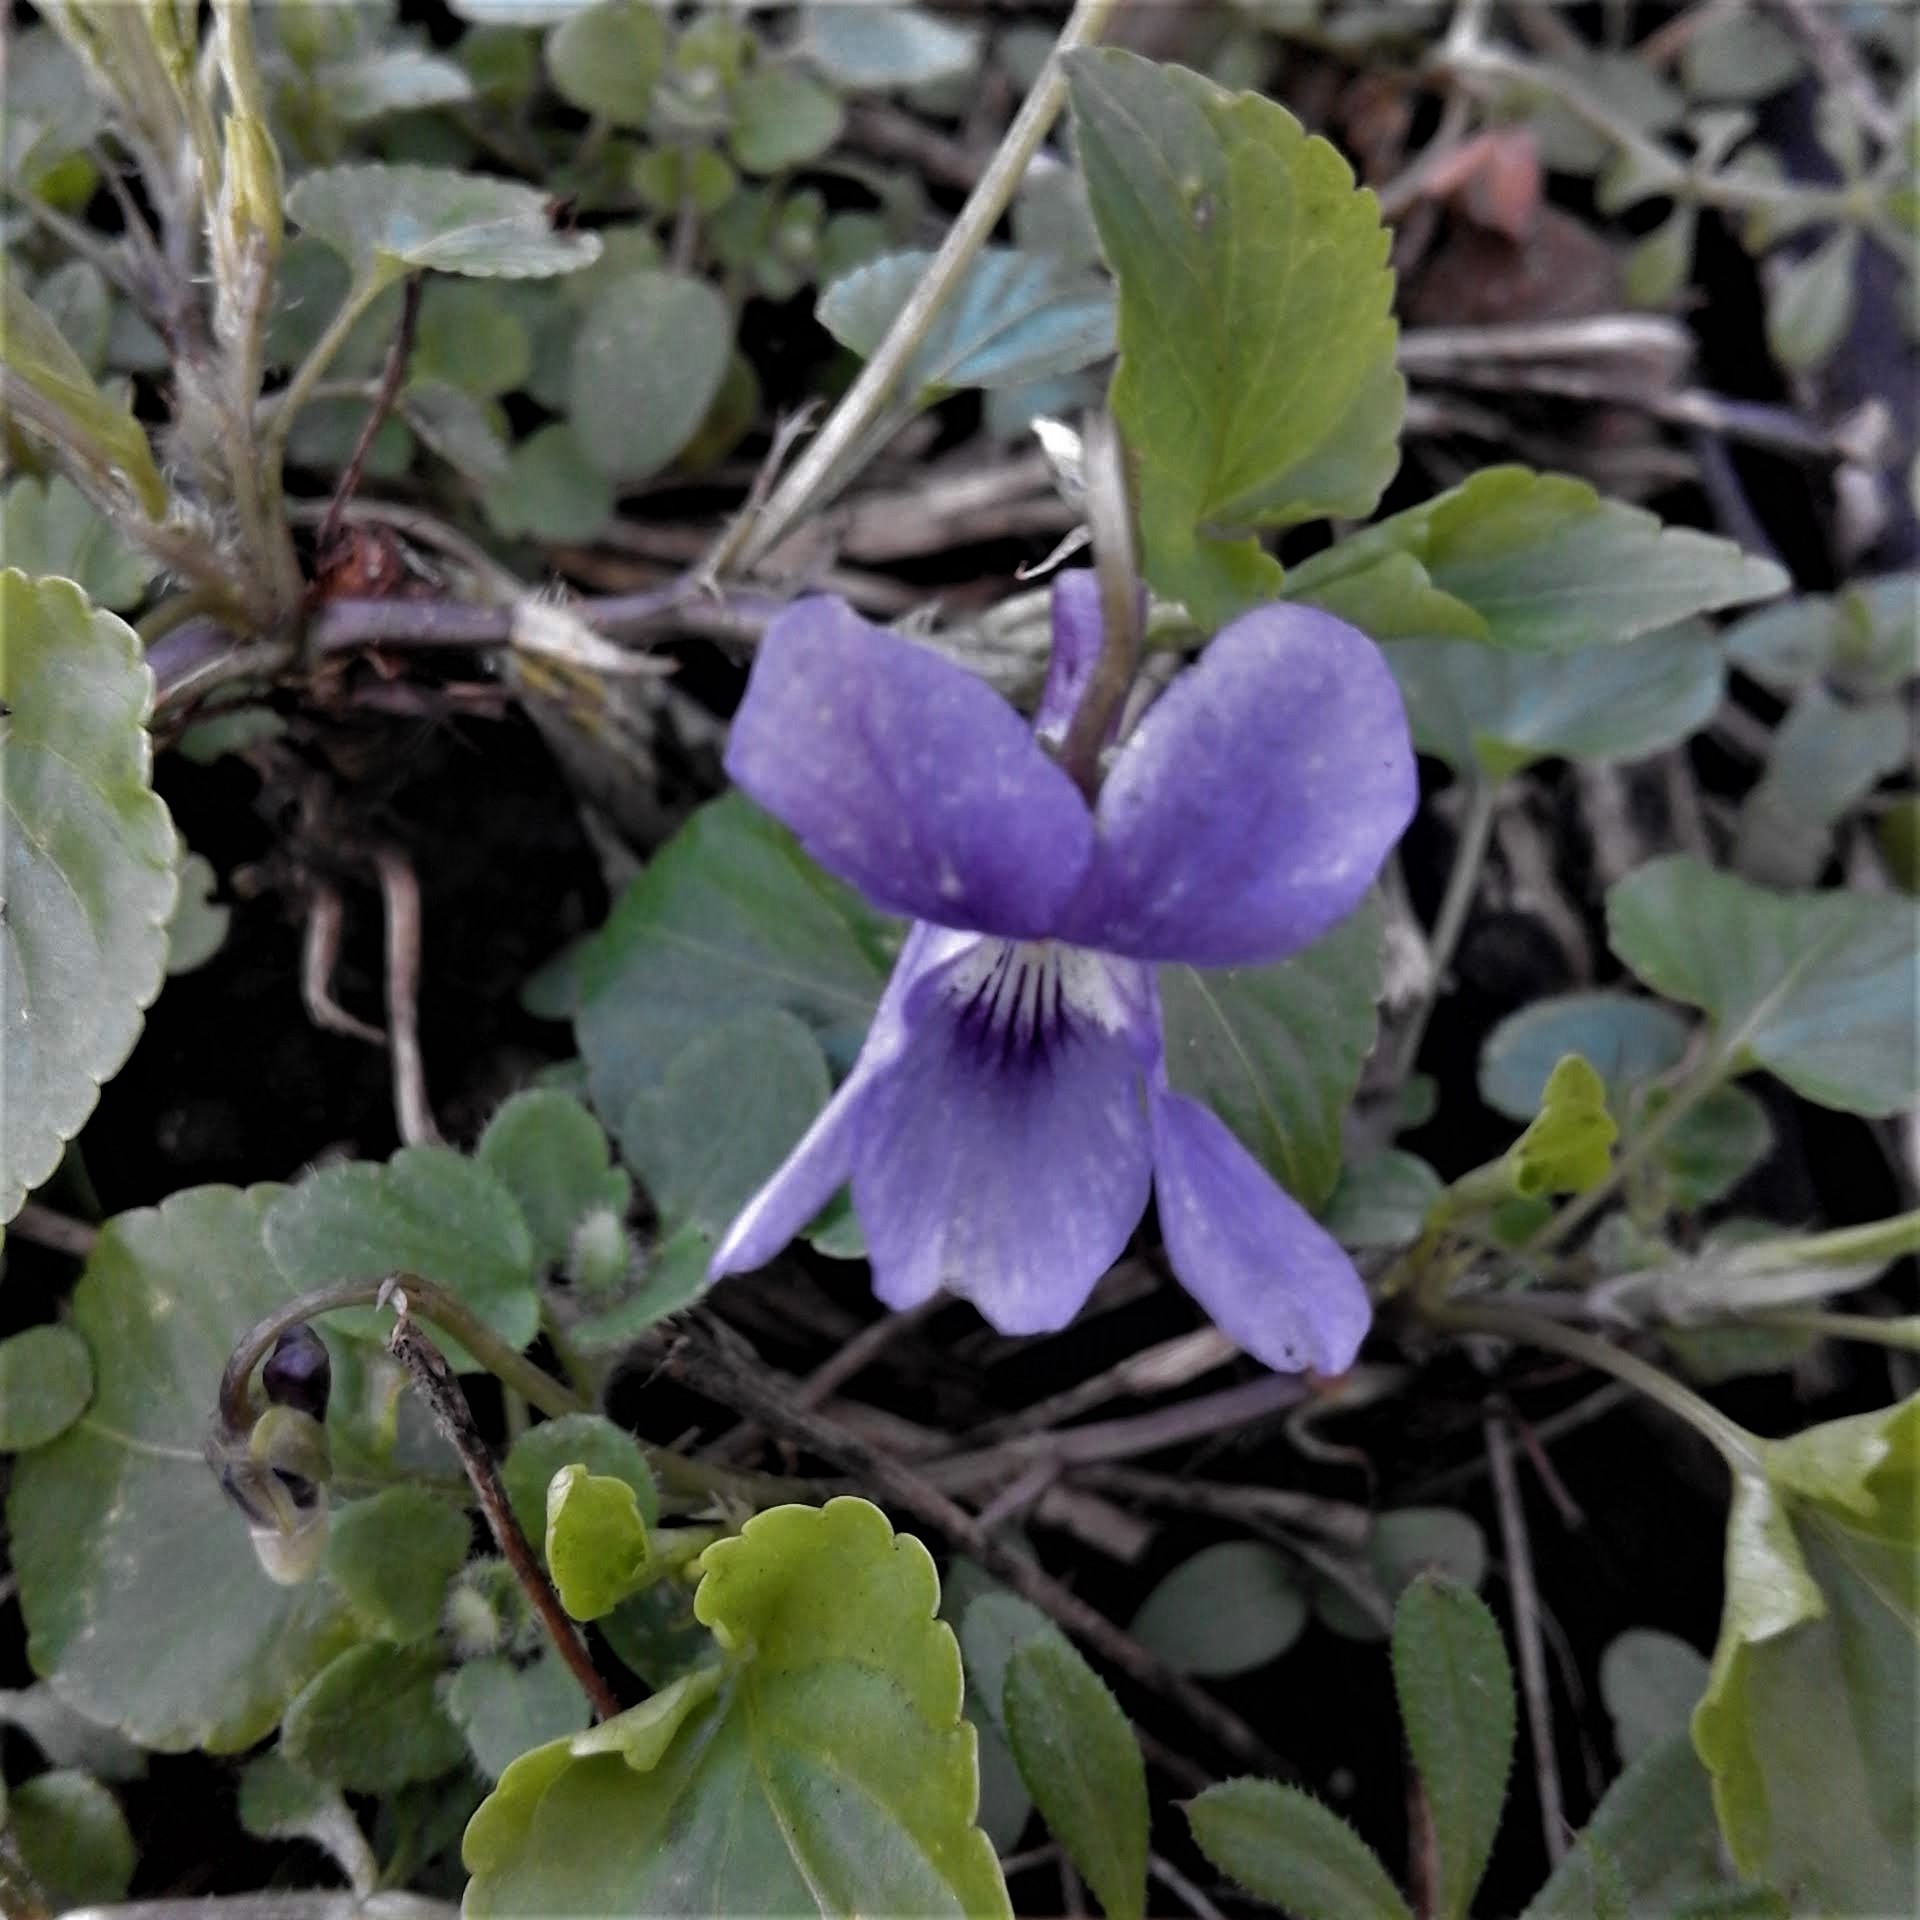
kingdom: Plantae
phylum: Tracheophyta
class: Magnoliopsida
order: Malpighiales
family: Violaceae
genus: Viola
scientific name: Viola riviniana
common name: Common dog-violet
